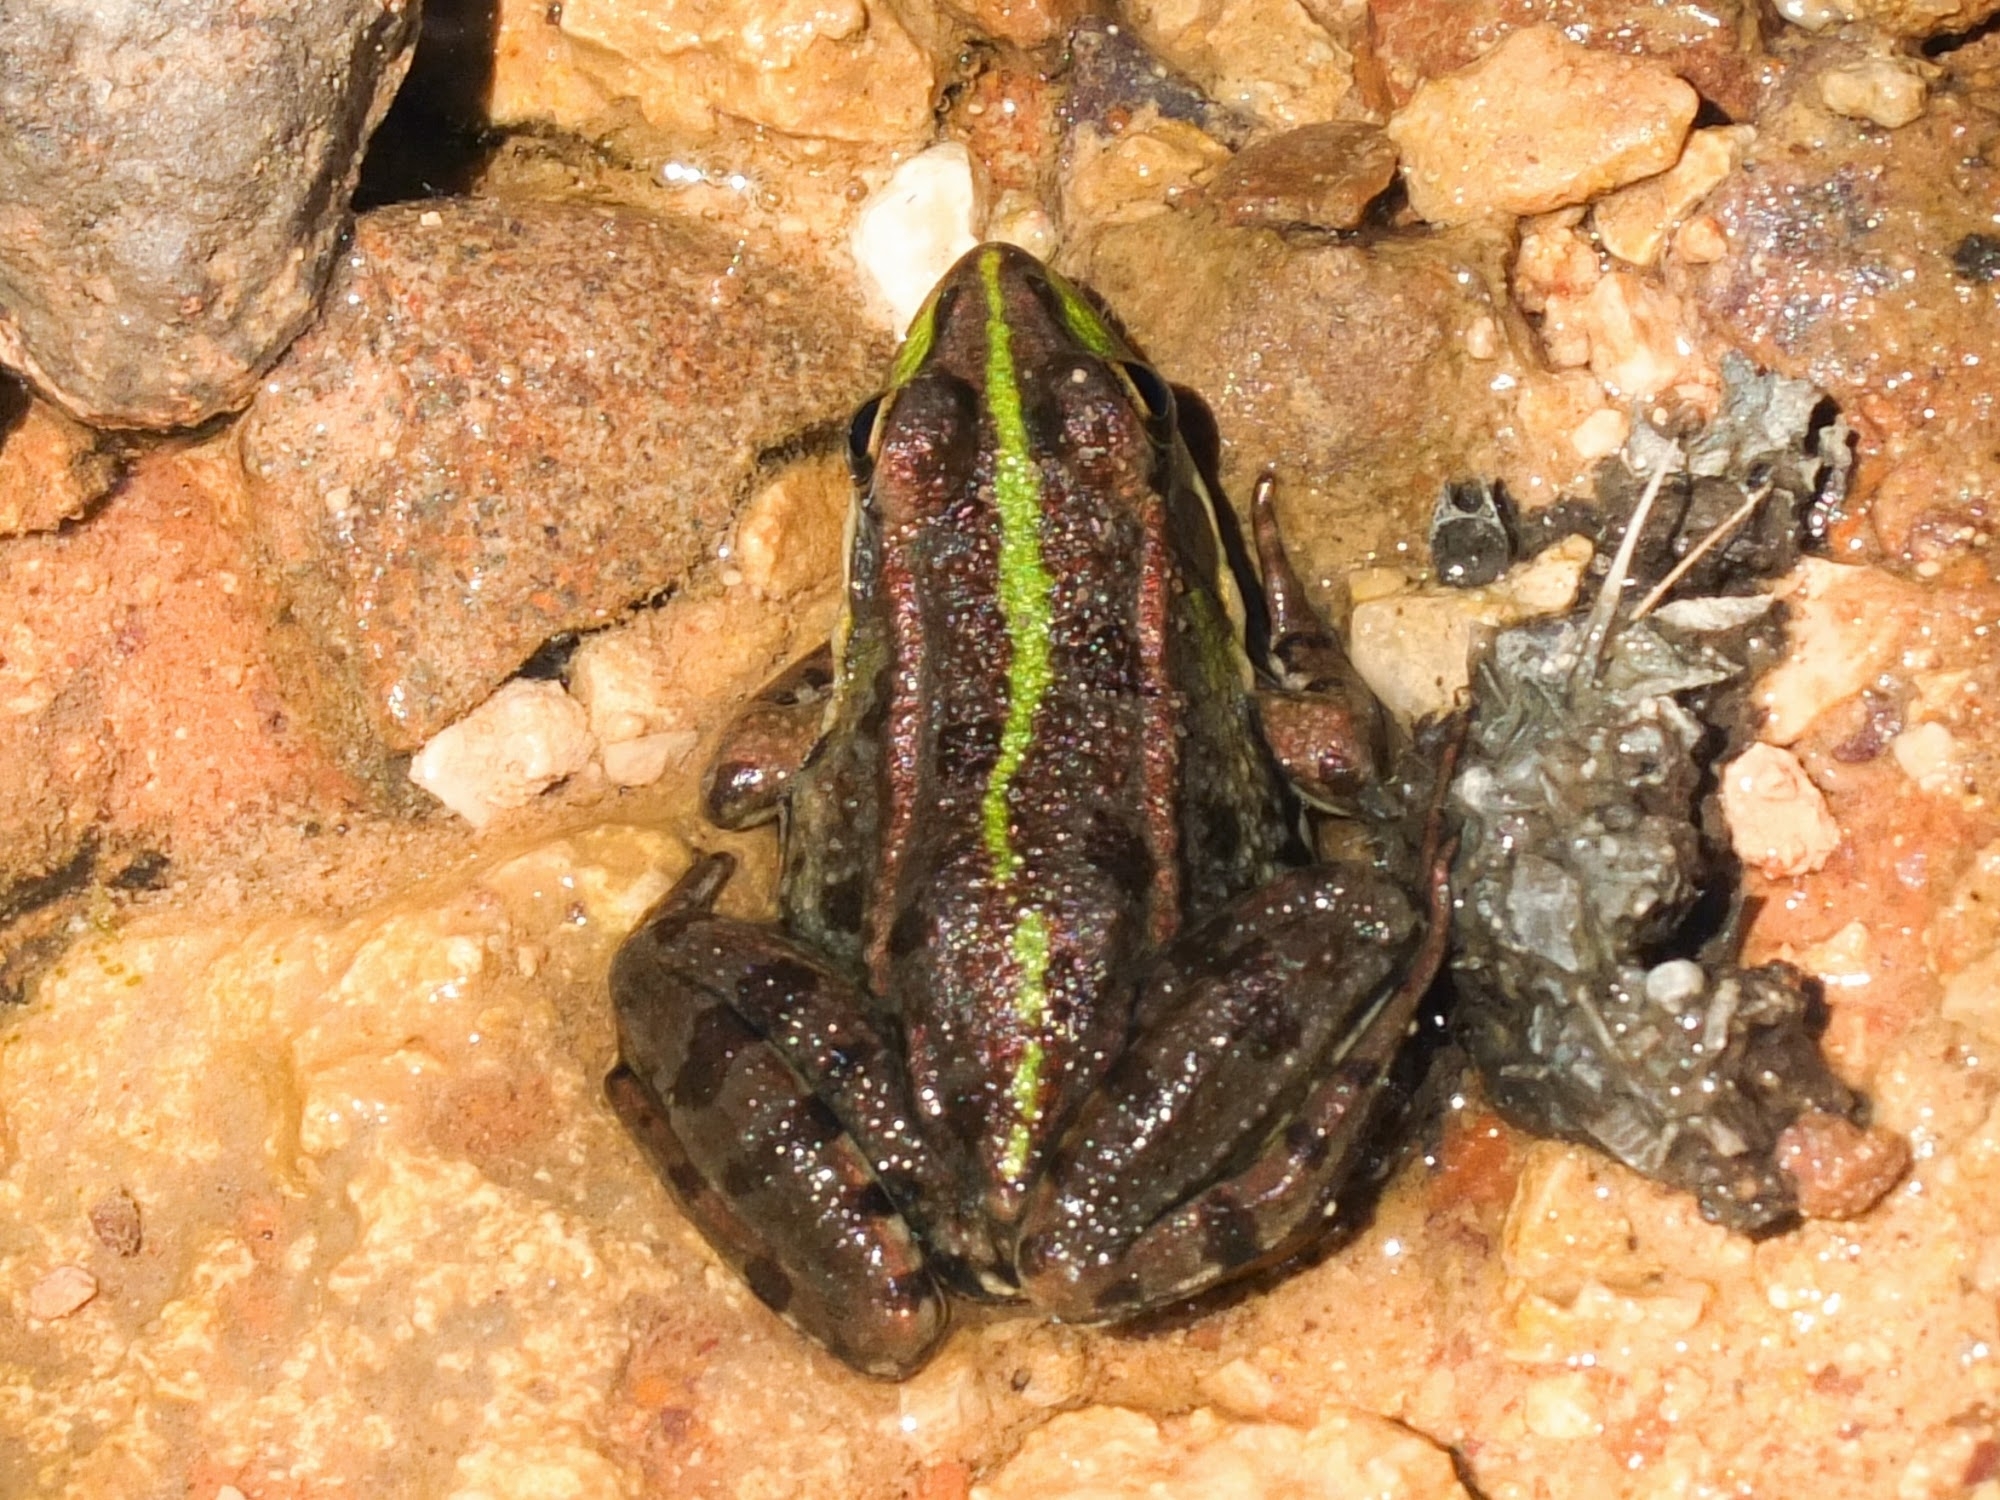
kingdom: Animalia
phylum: Chordata
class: Amphibia
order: Anura
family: Ranidae
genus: Pelophylax
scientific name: Pelophylax perezi
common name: Perez's frog
